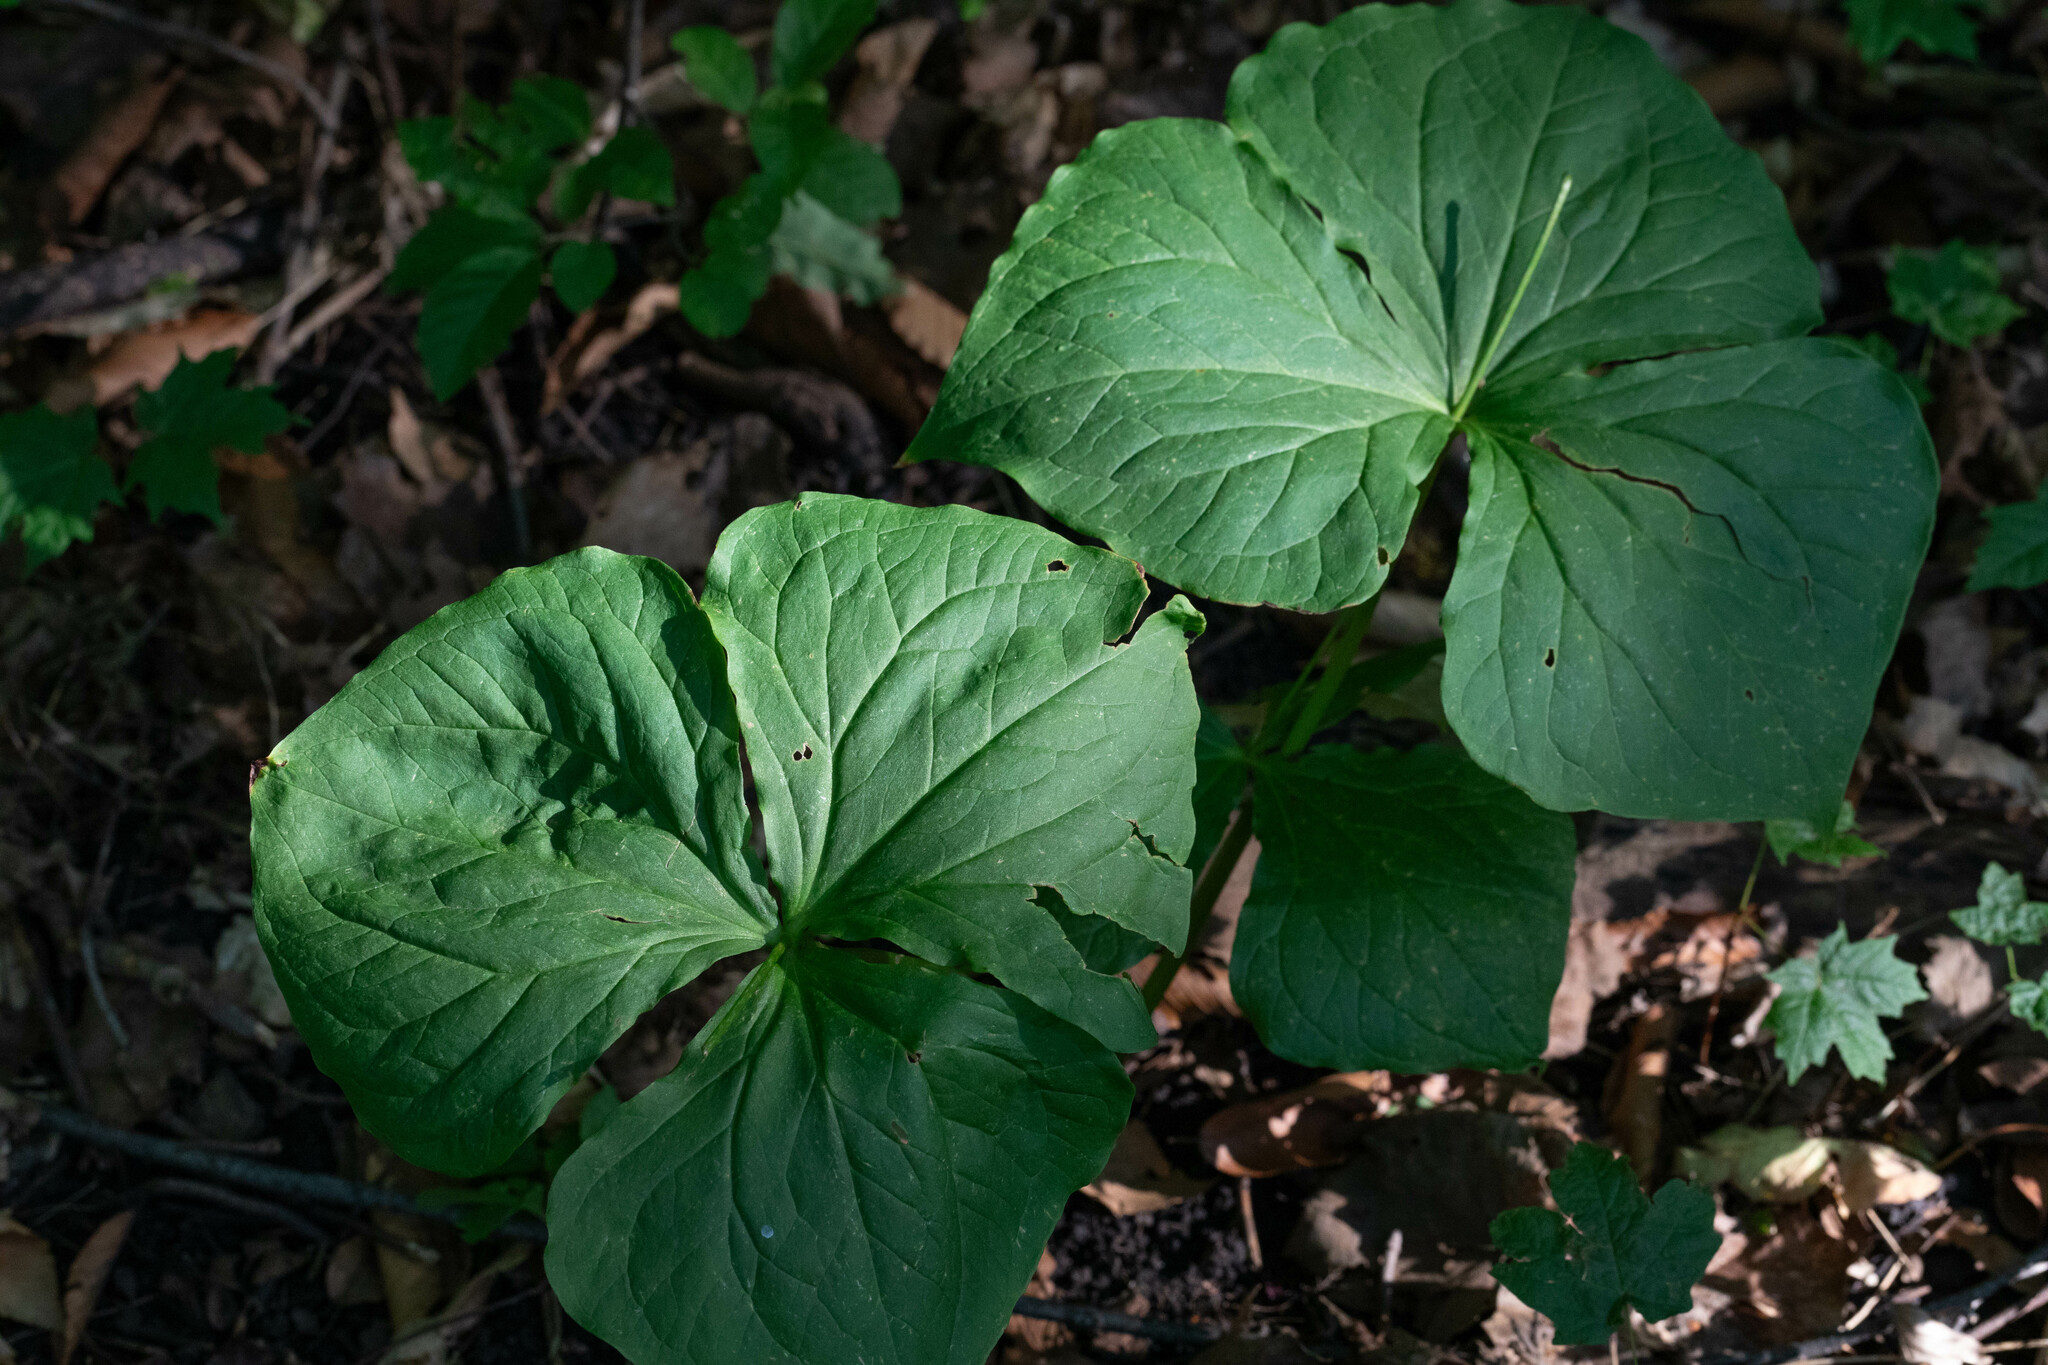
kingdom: Plantae
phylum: Tracheophyta
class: Liliopsida
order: Liliales
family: Melanthiaceae
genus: Trillium
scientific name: Trillium erectum
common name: Purple trillium
